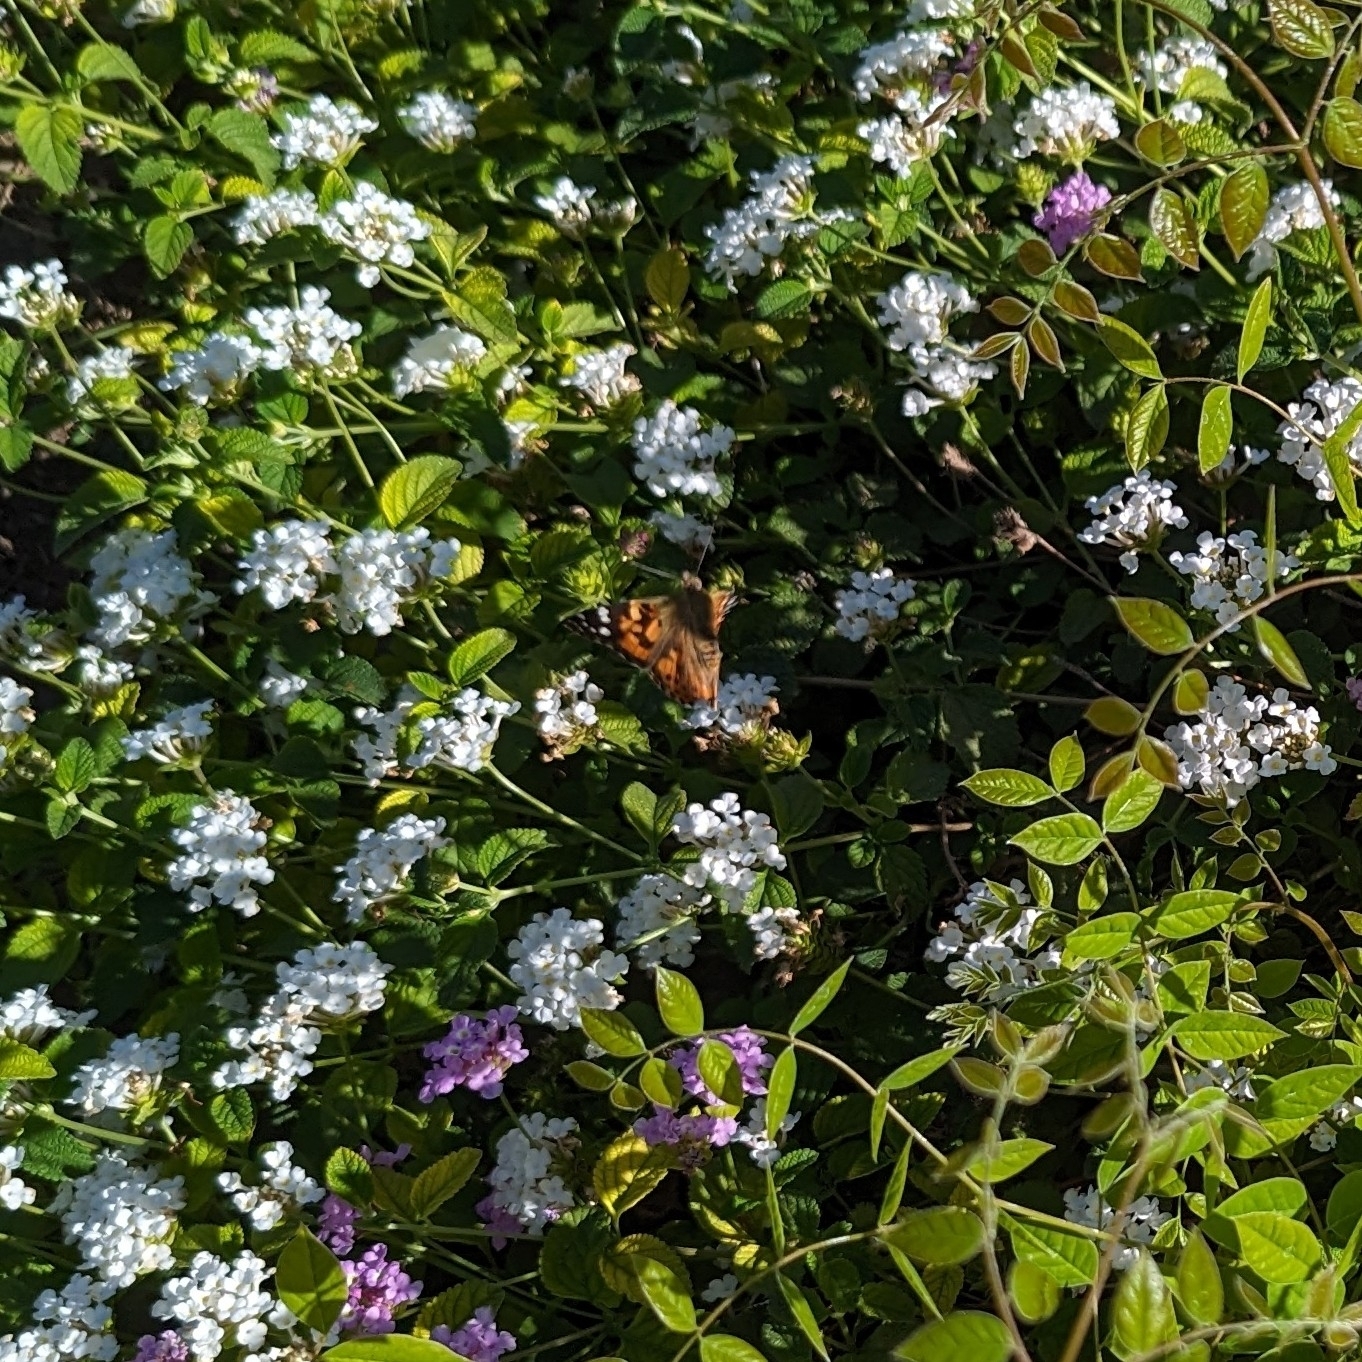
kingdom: Animalia
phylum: Arthropoda
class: Insecta
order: Lepidoptera
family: Nymphalidae
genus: Vanessa
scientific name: Vanessa cardui
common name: Painted lady
